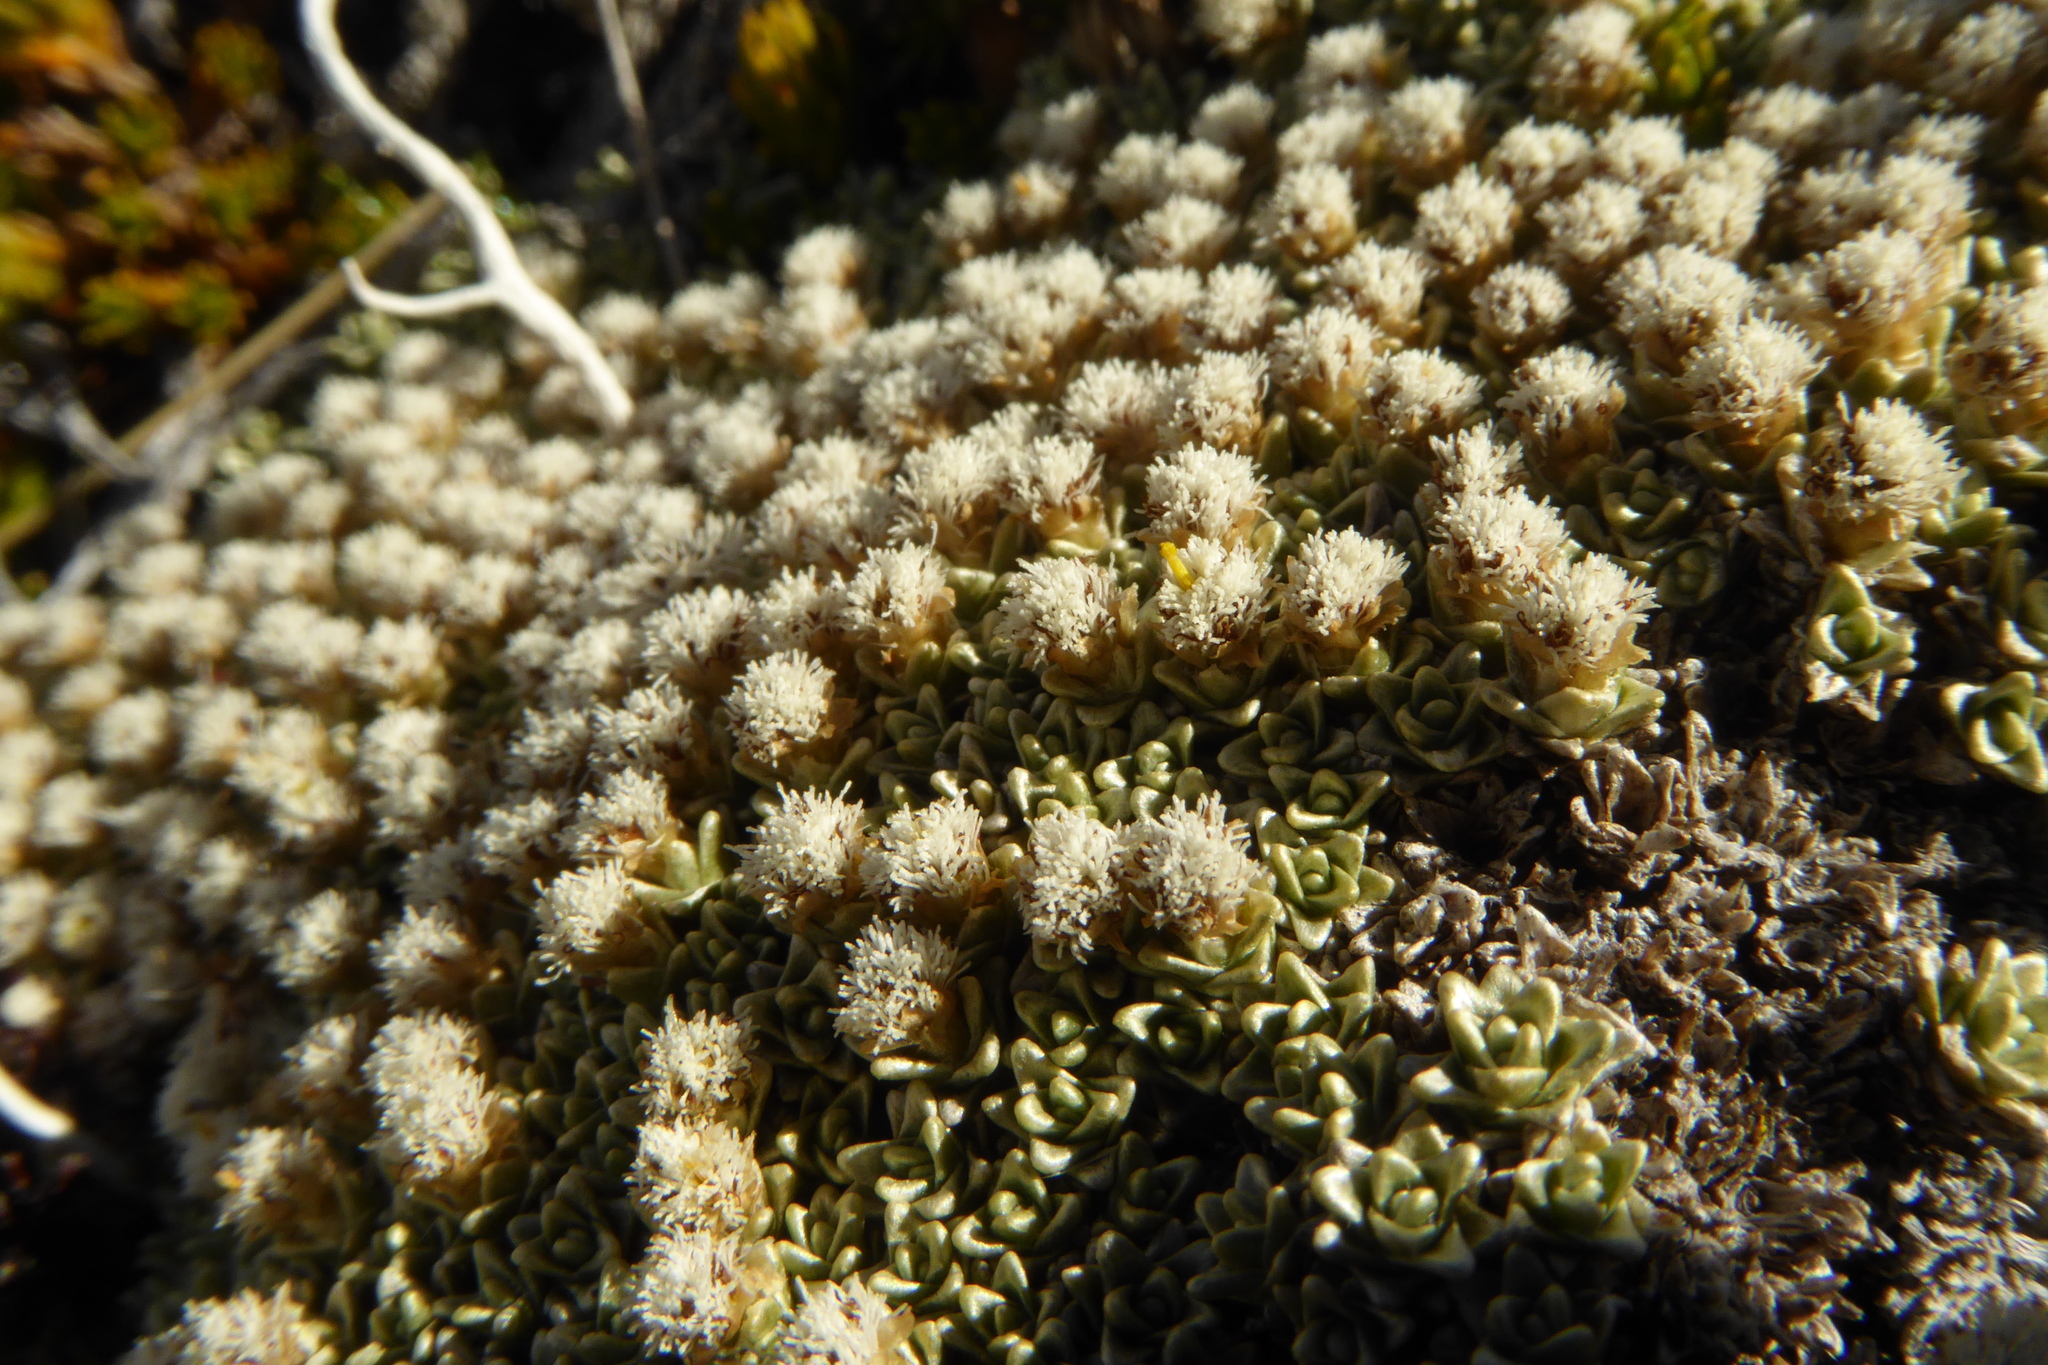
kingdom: Plantae
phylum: Tracheophyta
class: Magnoliopsida
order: Asterales
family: Asteraceae
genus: Raoulia
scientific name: Raoulia hectorii
